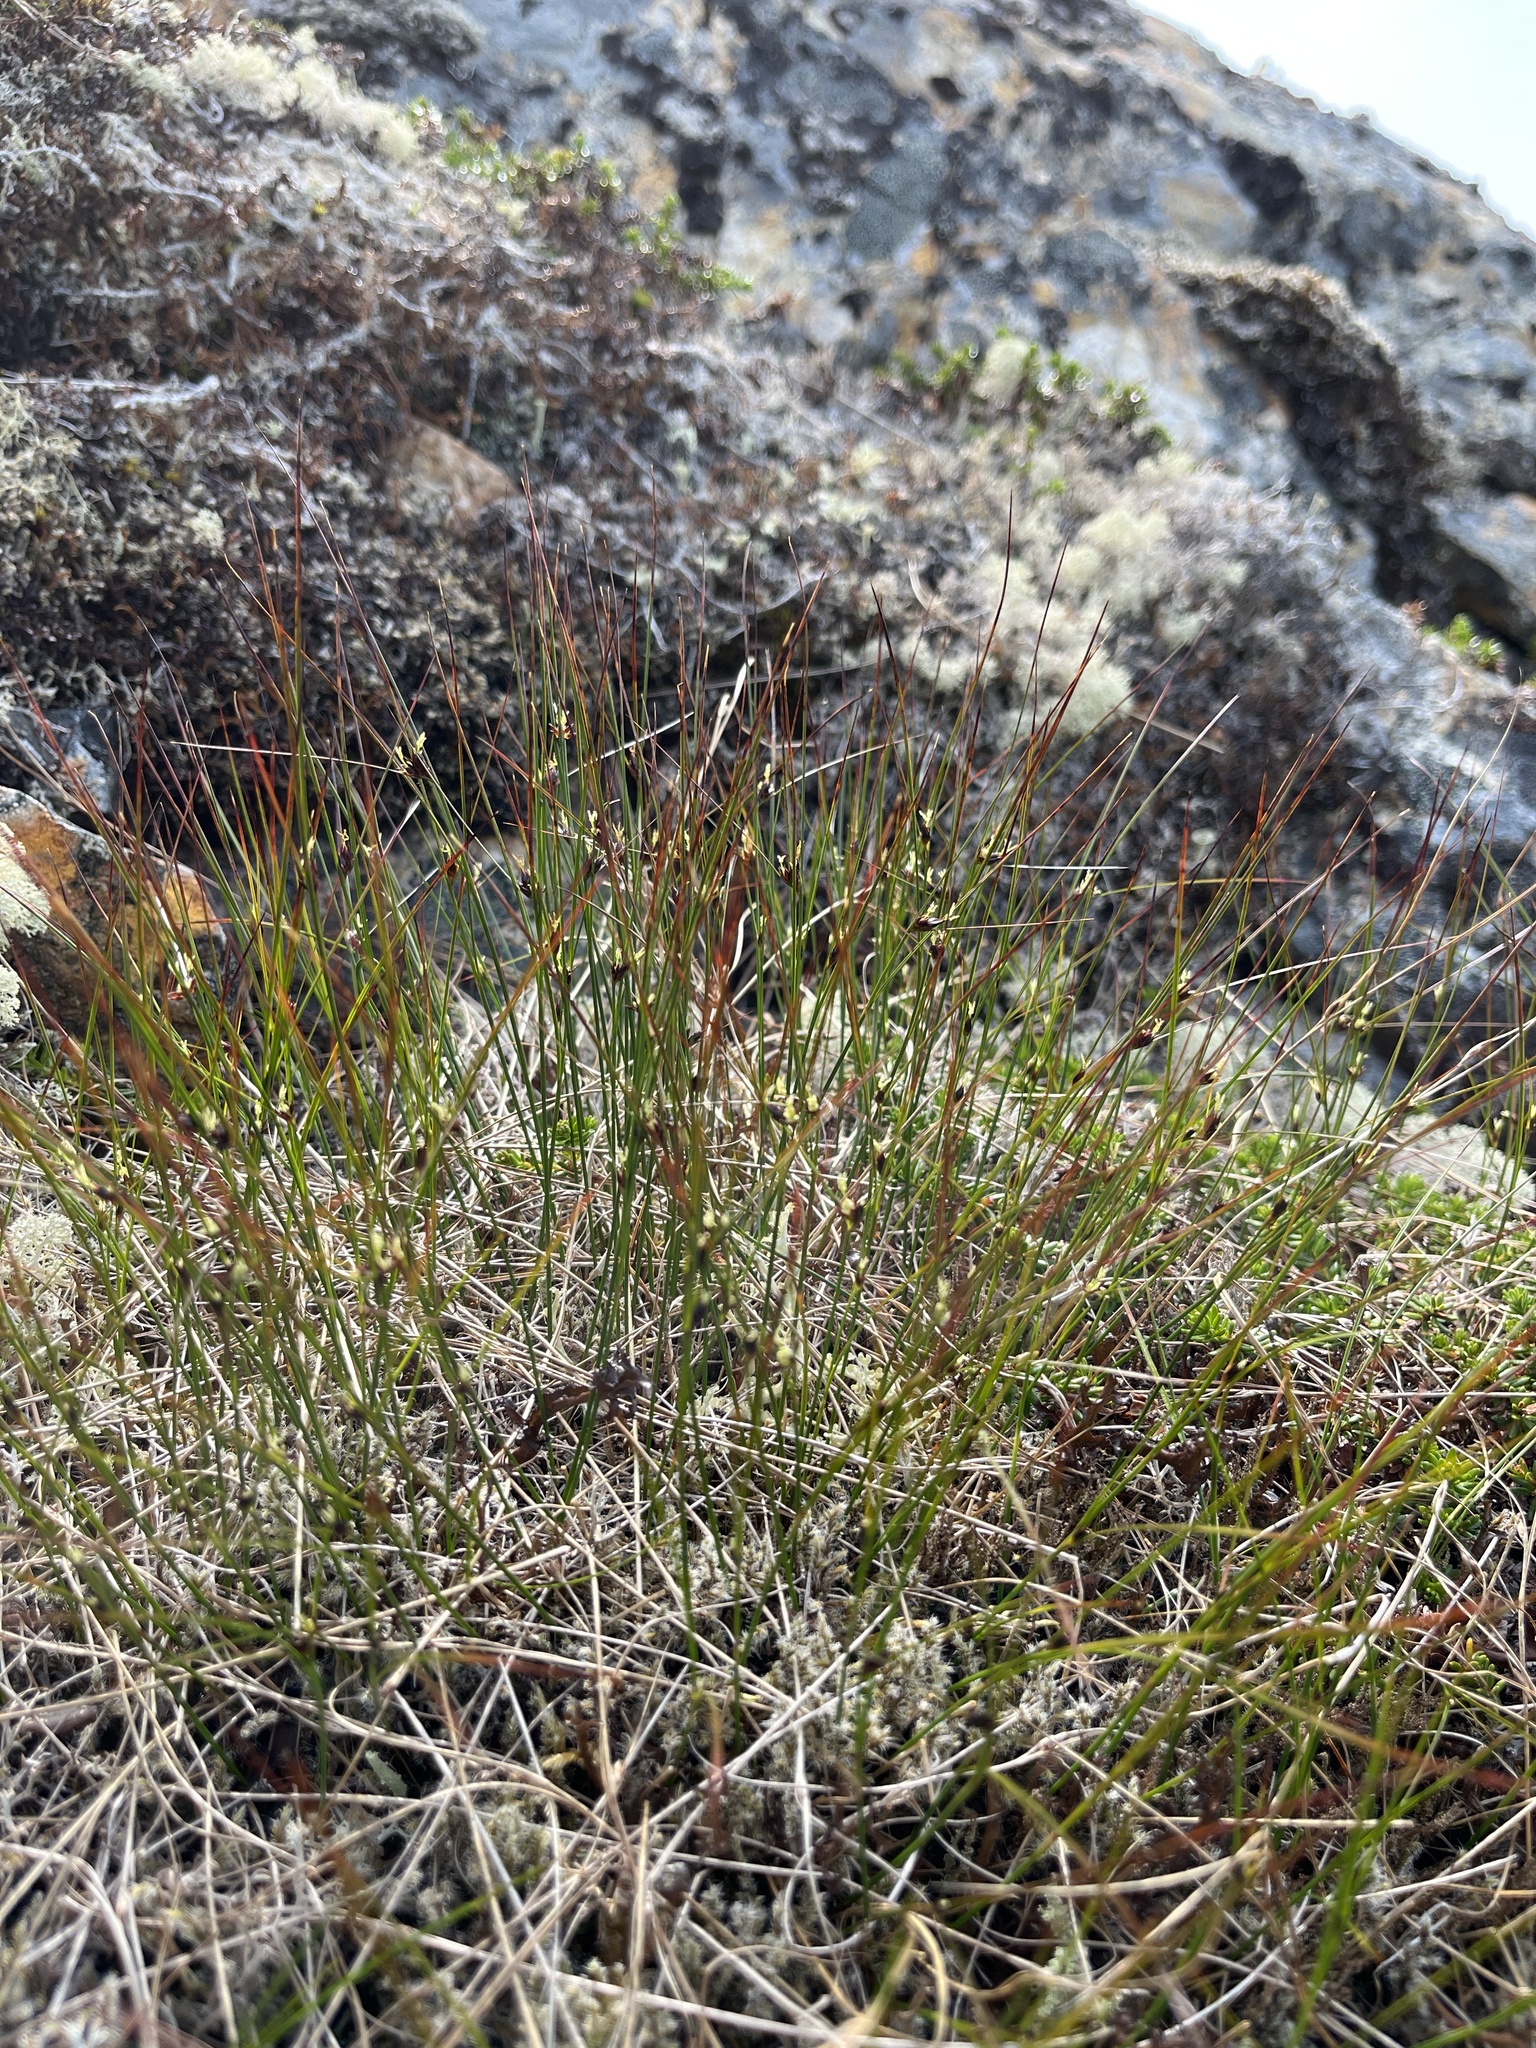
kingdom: Plantae
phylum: Tracheophyta
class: Liliopsida
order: Poales
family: Juncaceae
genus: Oreojuncus
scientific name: Oreojuncus trifidus
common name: Highland rush
